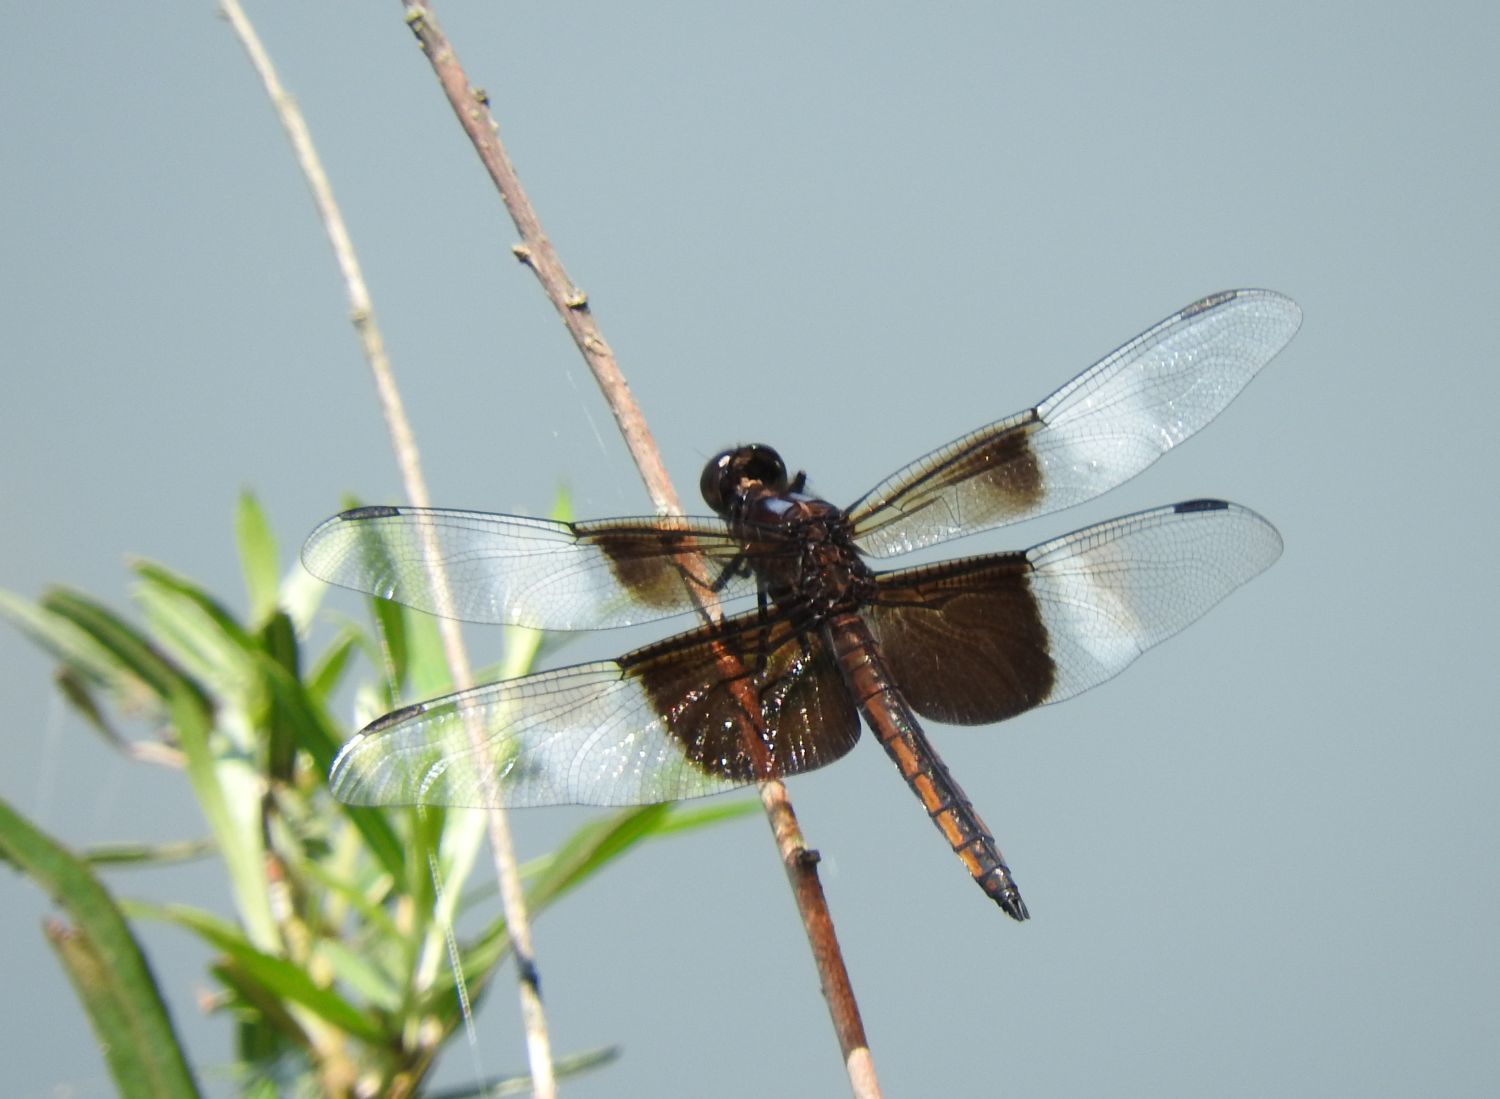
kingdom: Animalia
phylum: Arthropoda
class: Insecta
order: Odonata
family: Libellulidae
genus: Libellula
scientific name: Libellula luctuosa
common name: Widow skimmer
